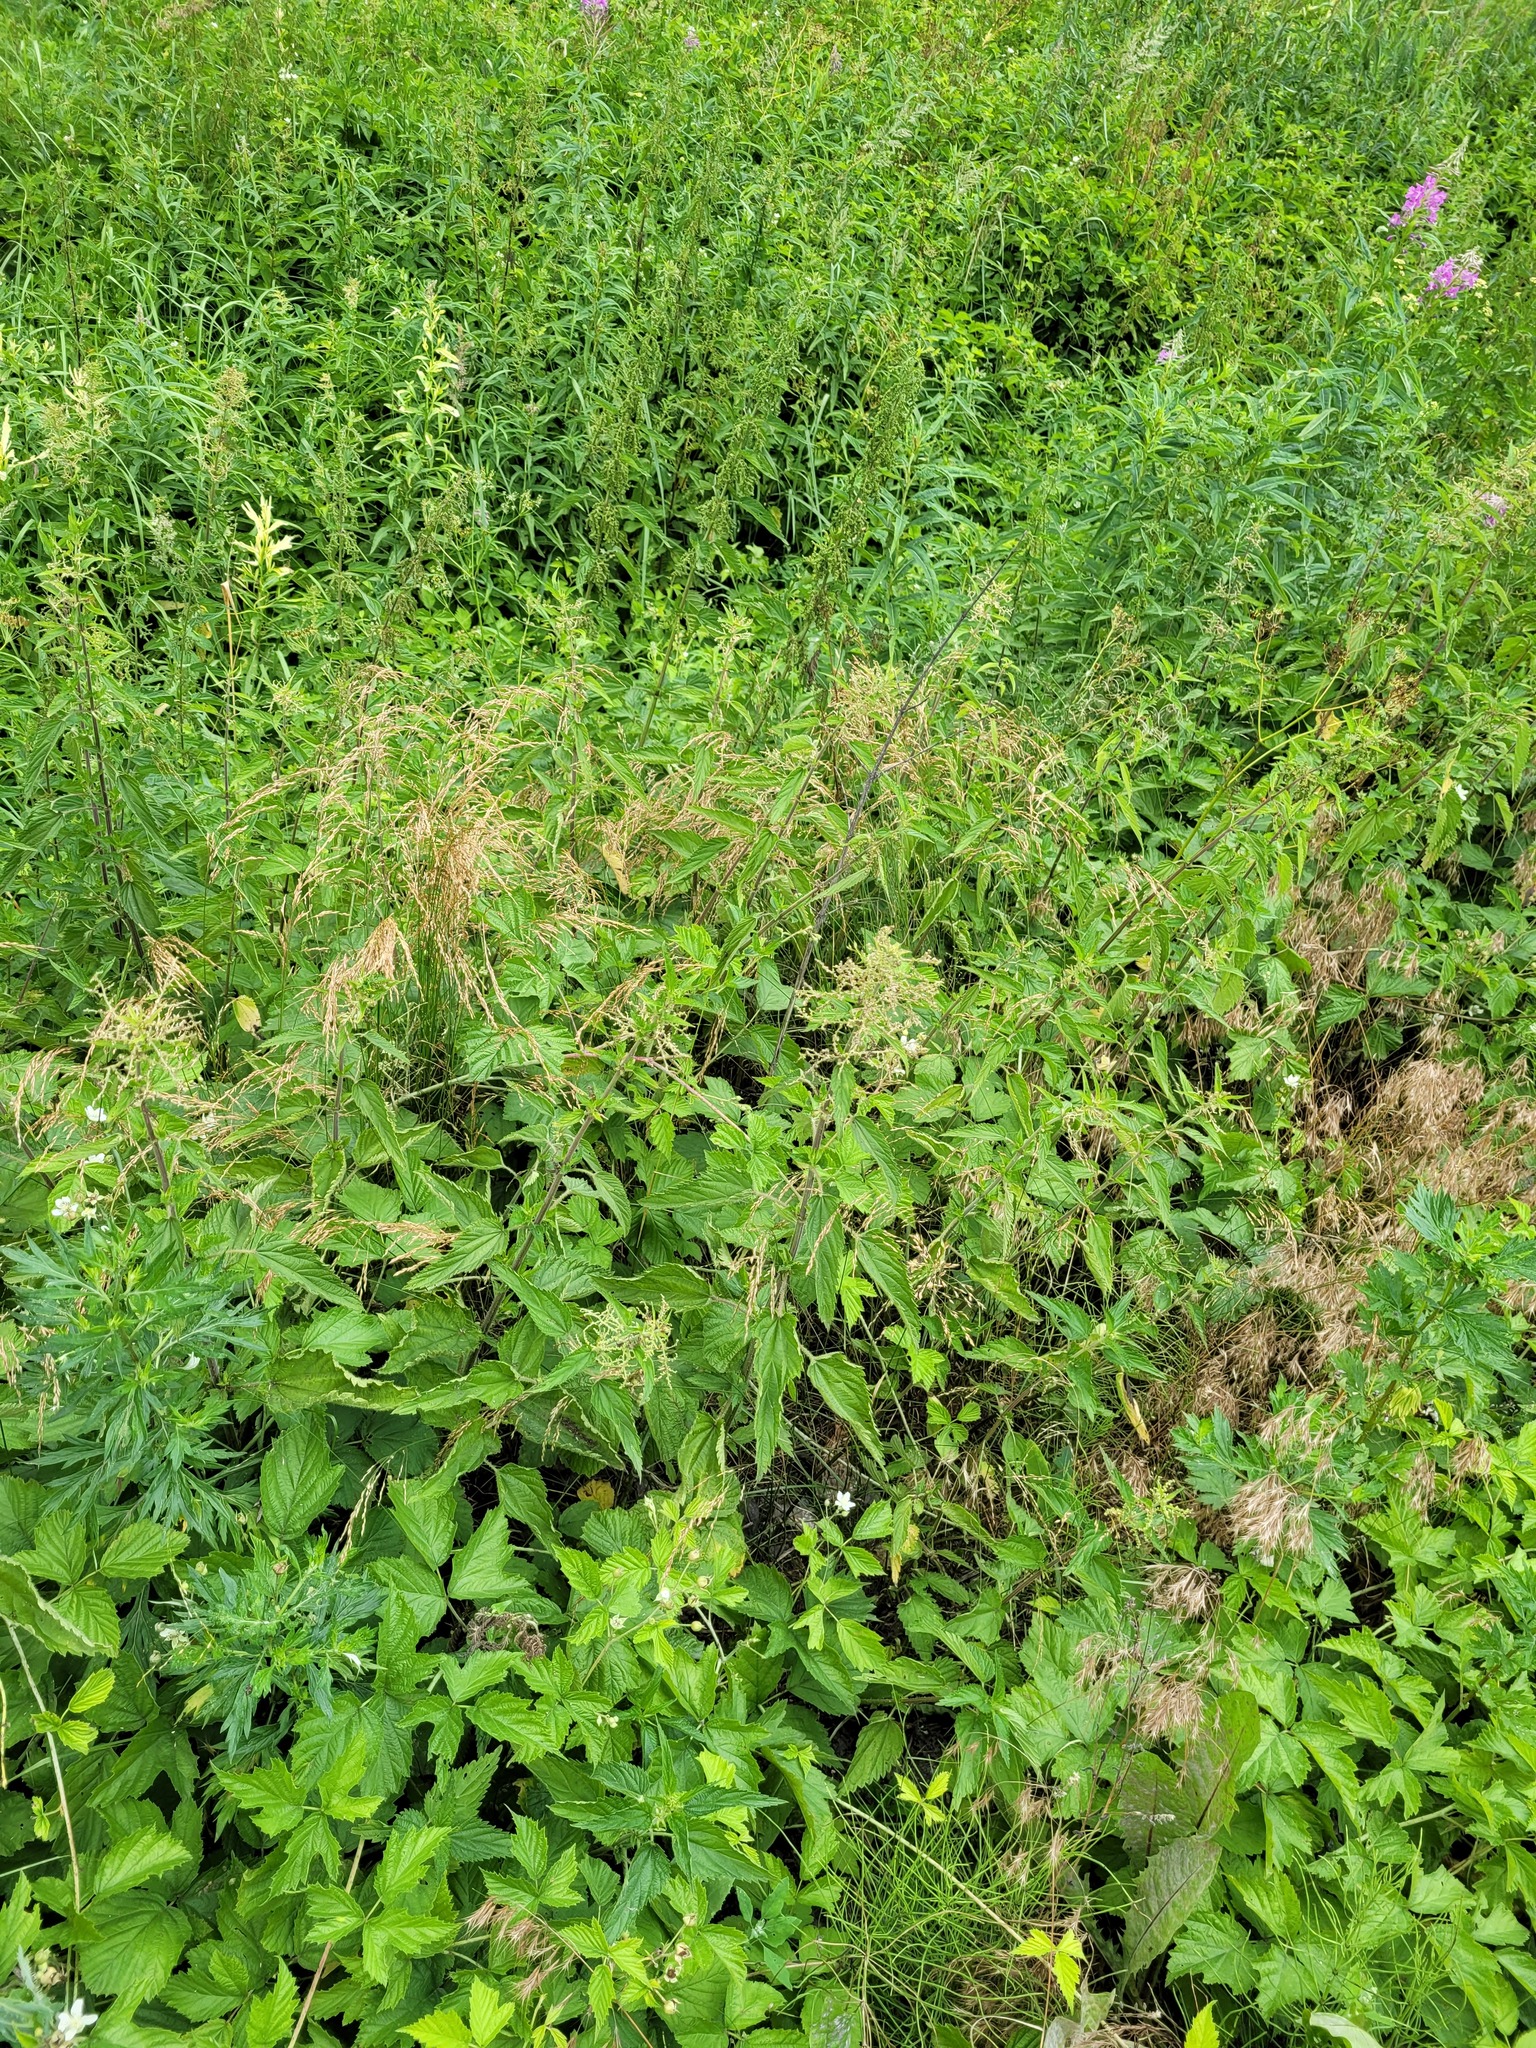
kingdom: Plantae
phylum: Tracheophyta
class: Magnoliopsida
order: Rosales
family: Urticaceae
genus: Urtica
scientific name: Urtica dioica
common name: Common nettle
